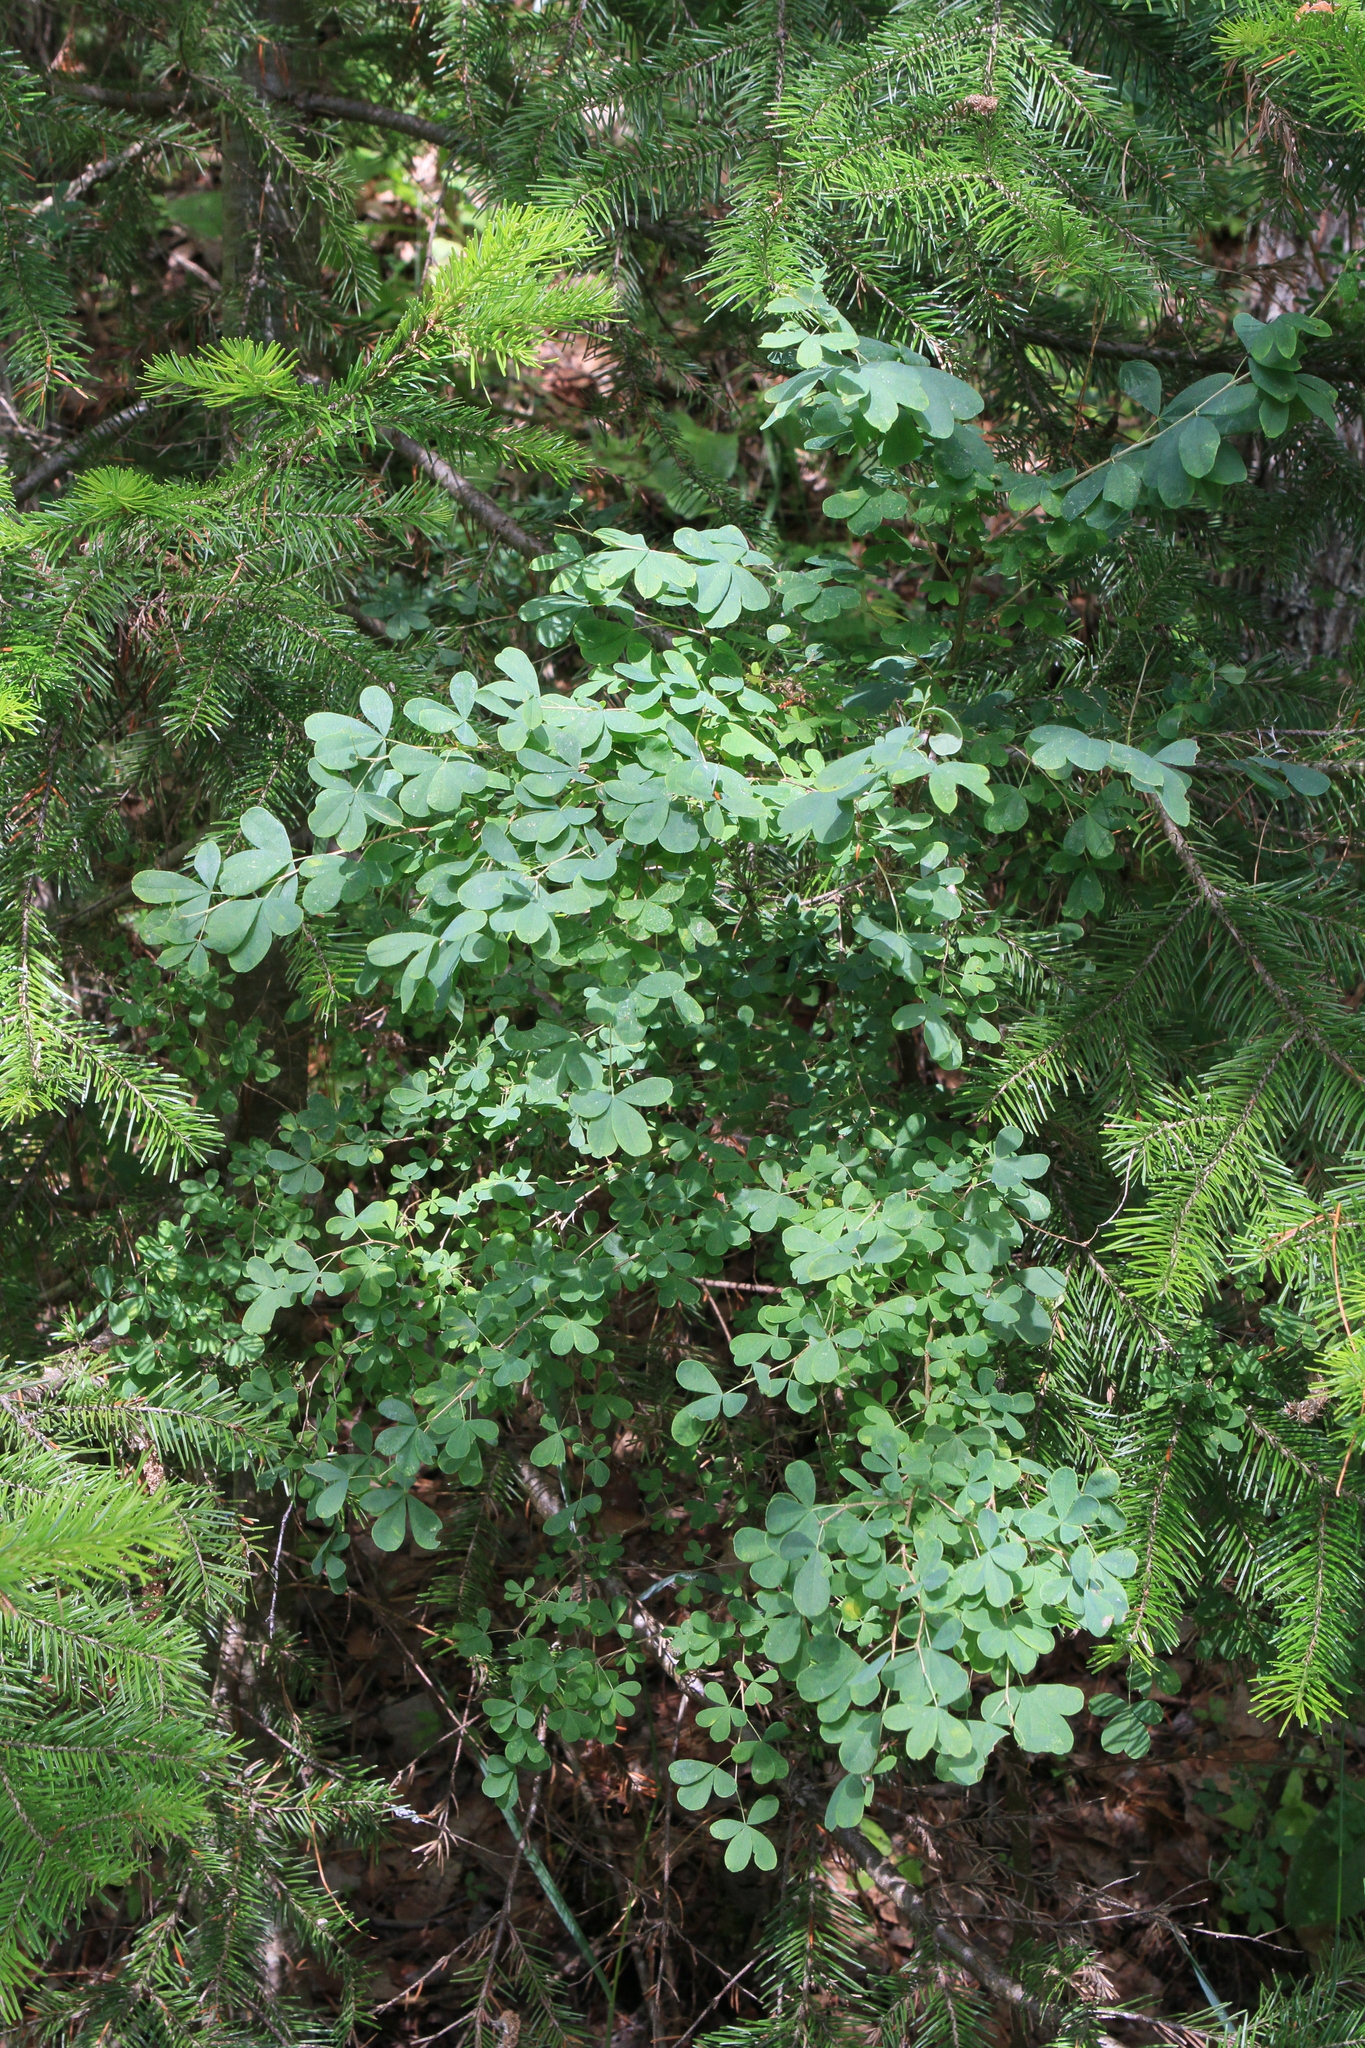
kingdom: Plantae
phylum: Tracheophyta
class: Magnoliopsida
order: Fabales
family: Fabaceae
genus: Caragana
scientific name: Caragana frutex
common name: Russian peashrub
